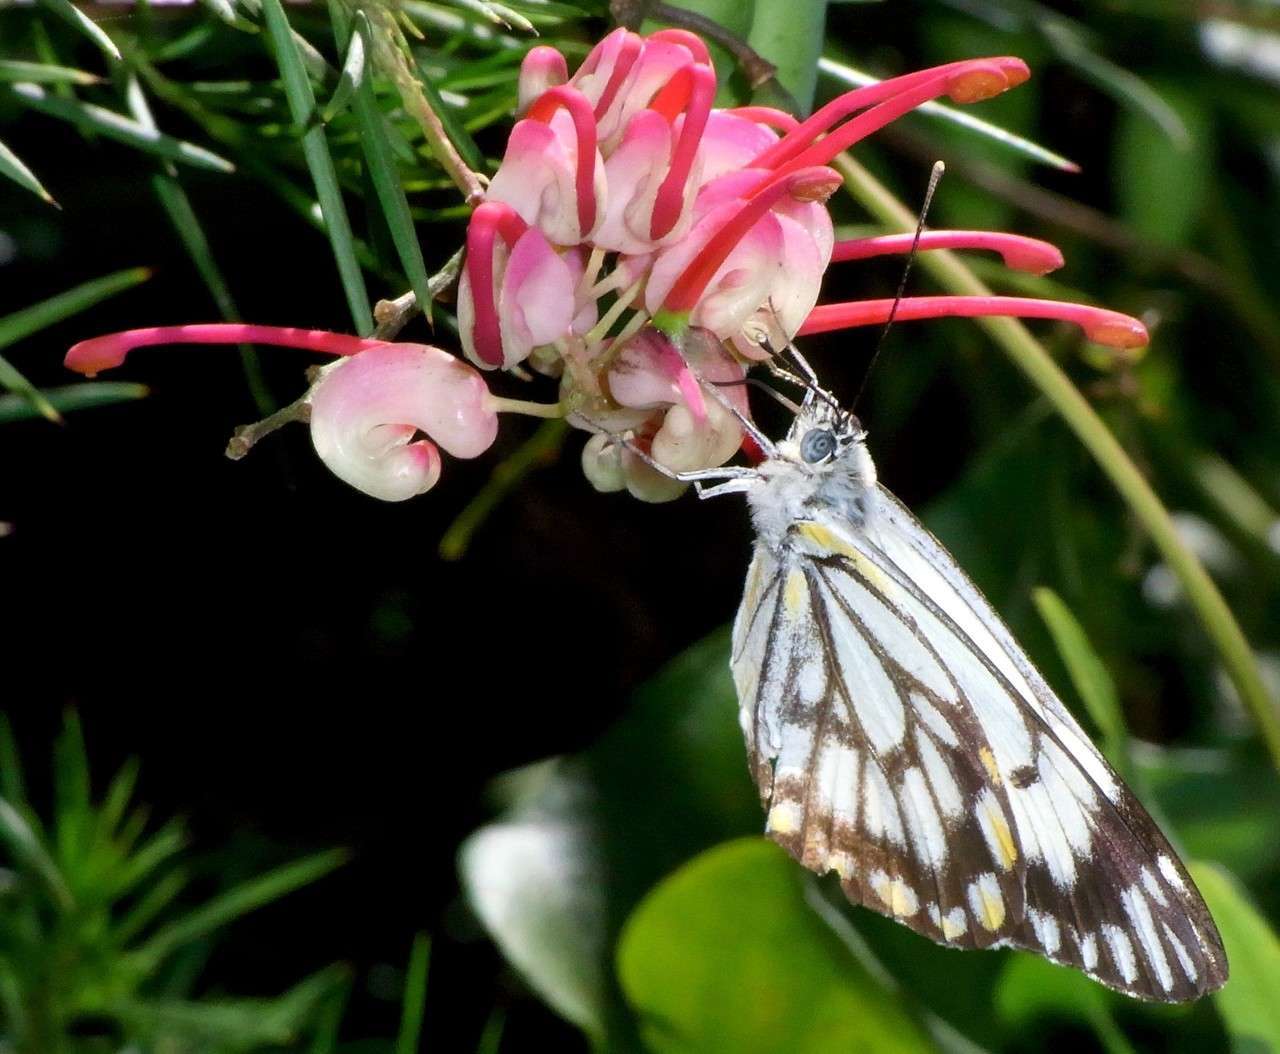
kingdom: Animalia
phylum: Arthropoda
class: Insecta
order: Lepidoptera
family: Pieridae
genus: Belenois
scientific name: Belenois java
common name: Caper white
